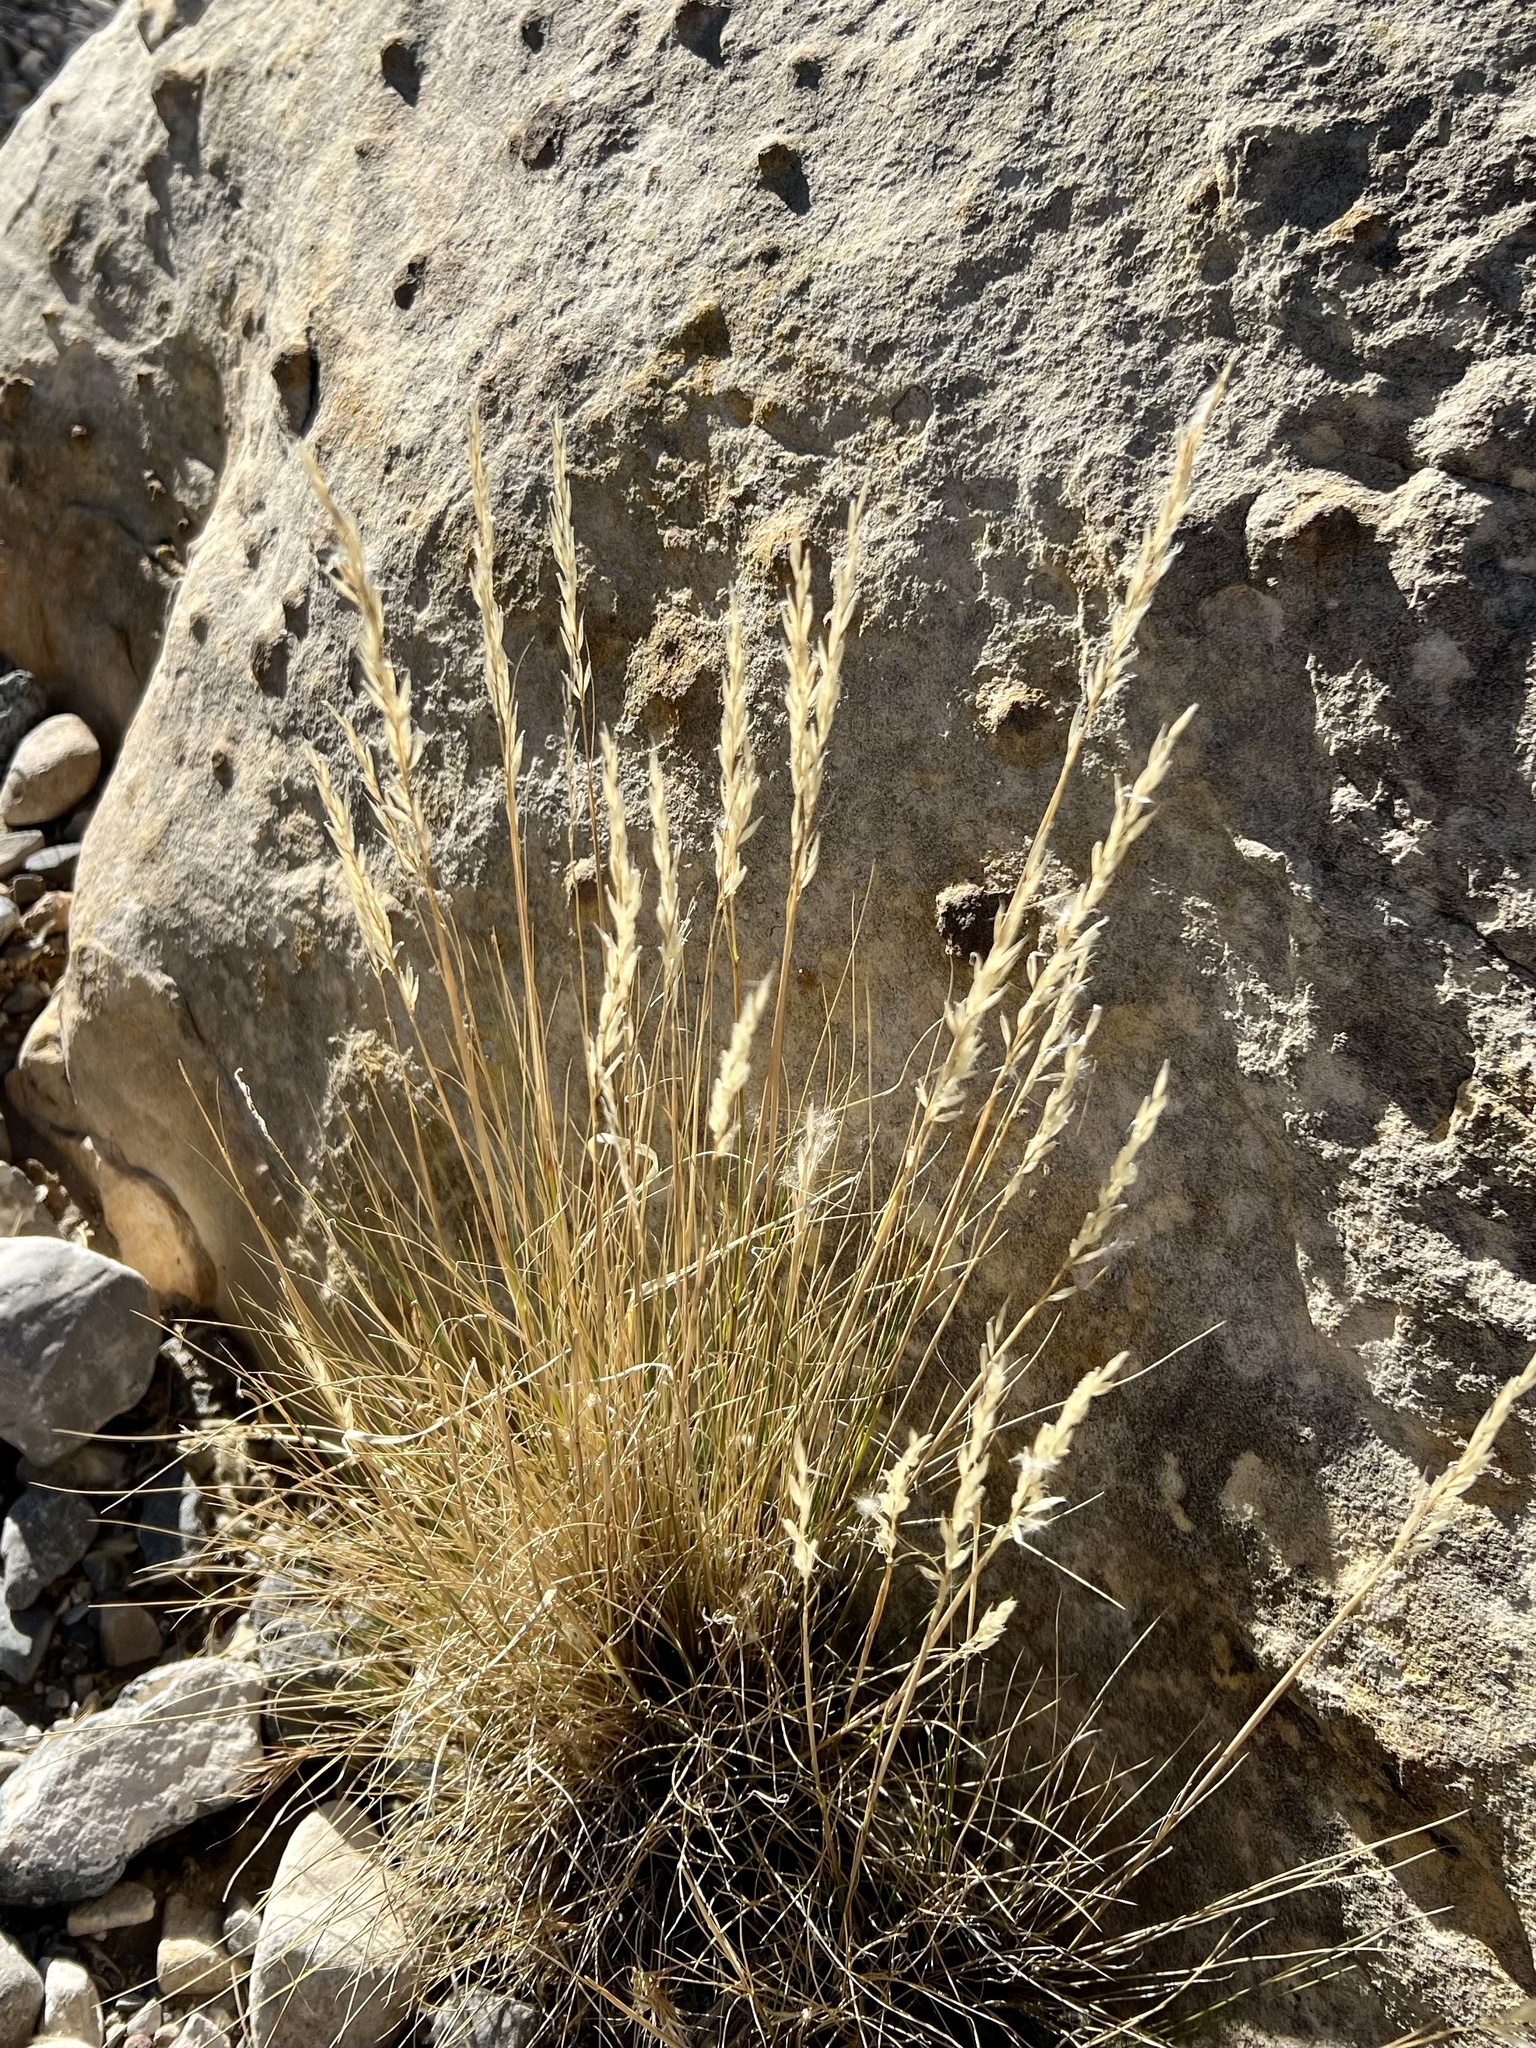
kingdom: Plantae
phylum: Tracheophyta
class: Liliopsida
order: Poales
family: Poaceae
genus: Pappostipa
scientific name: Pappostipa speciosa
